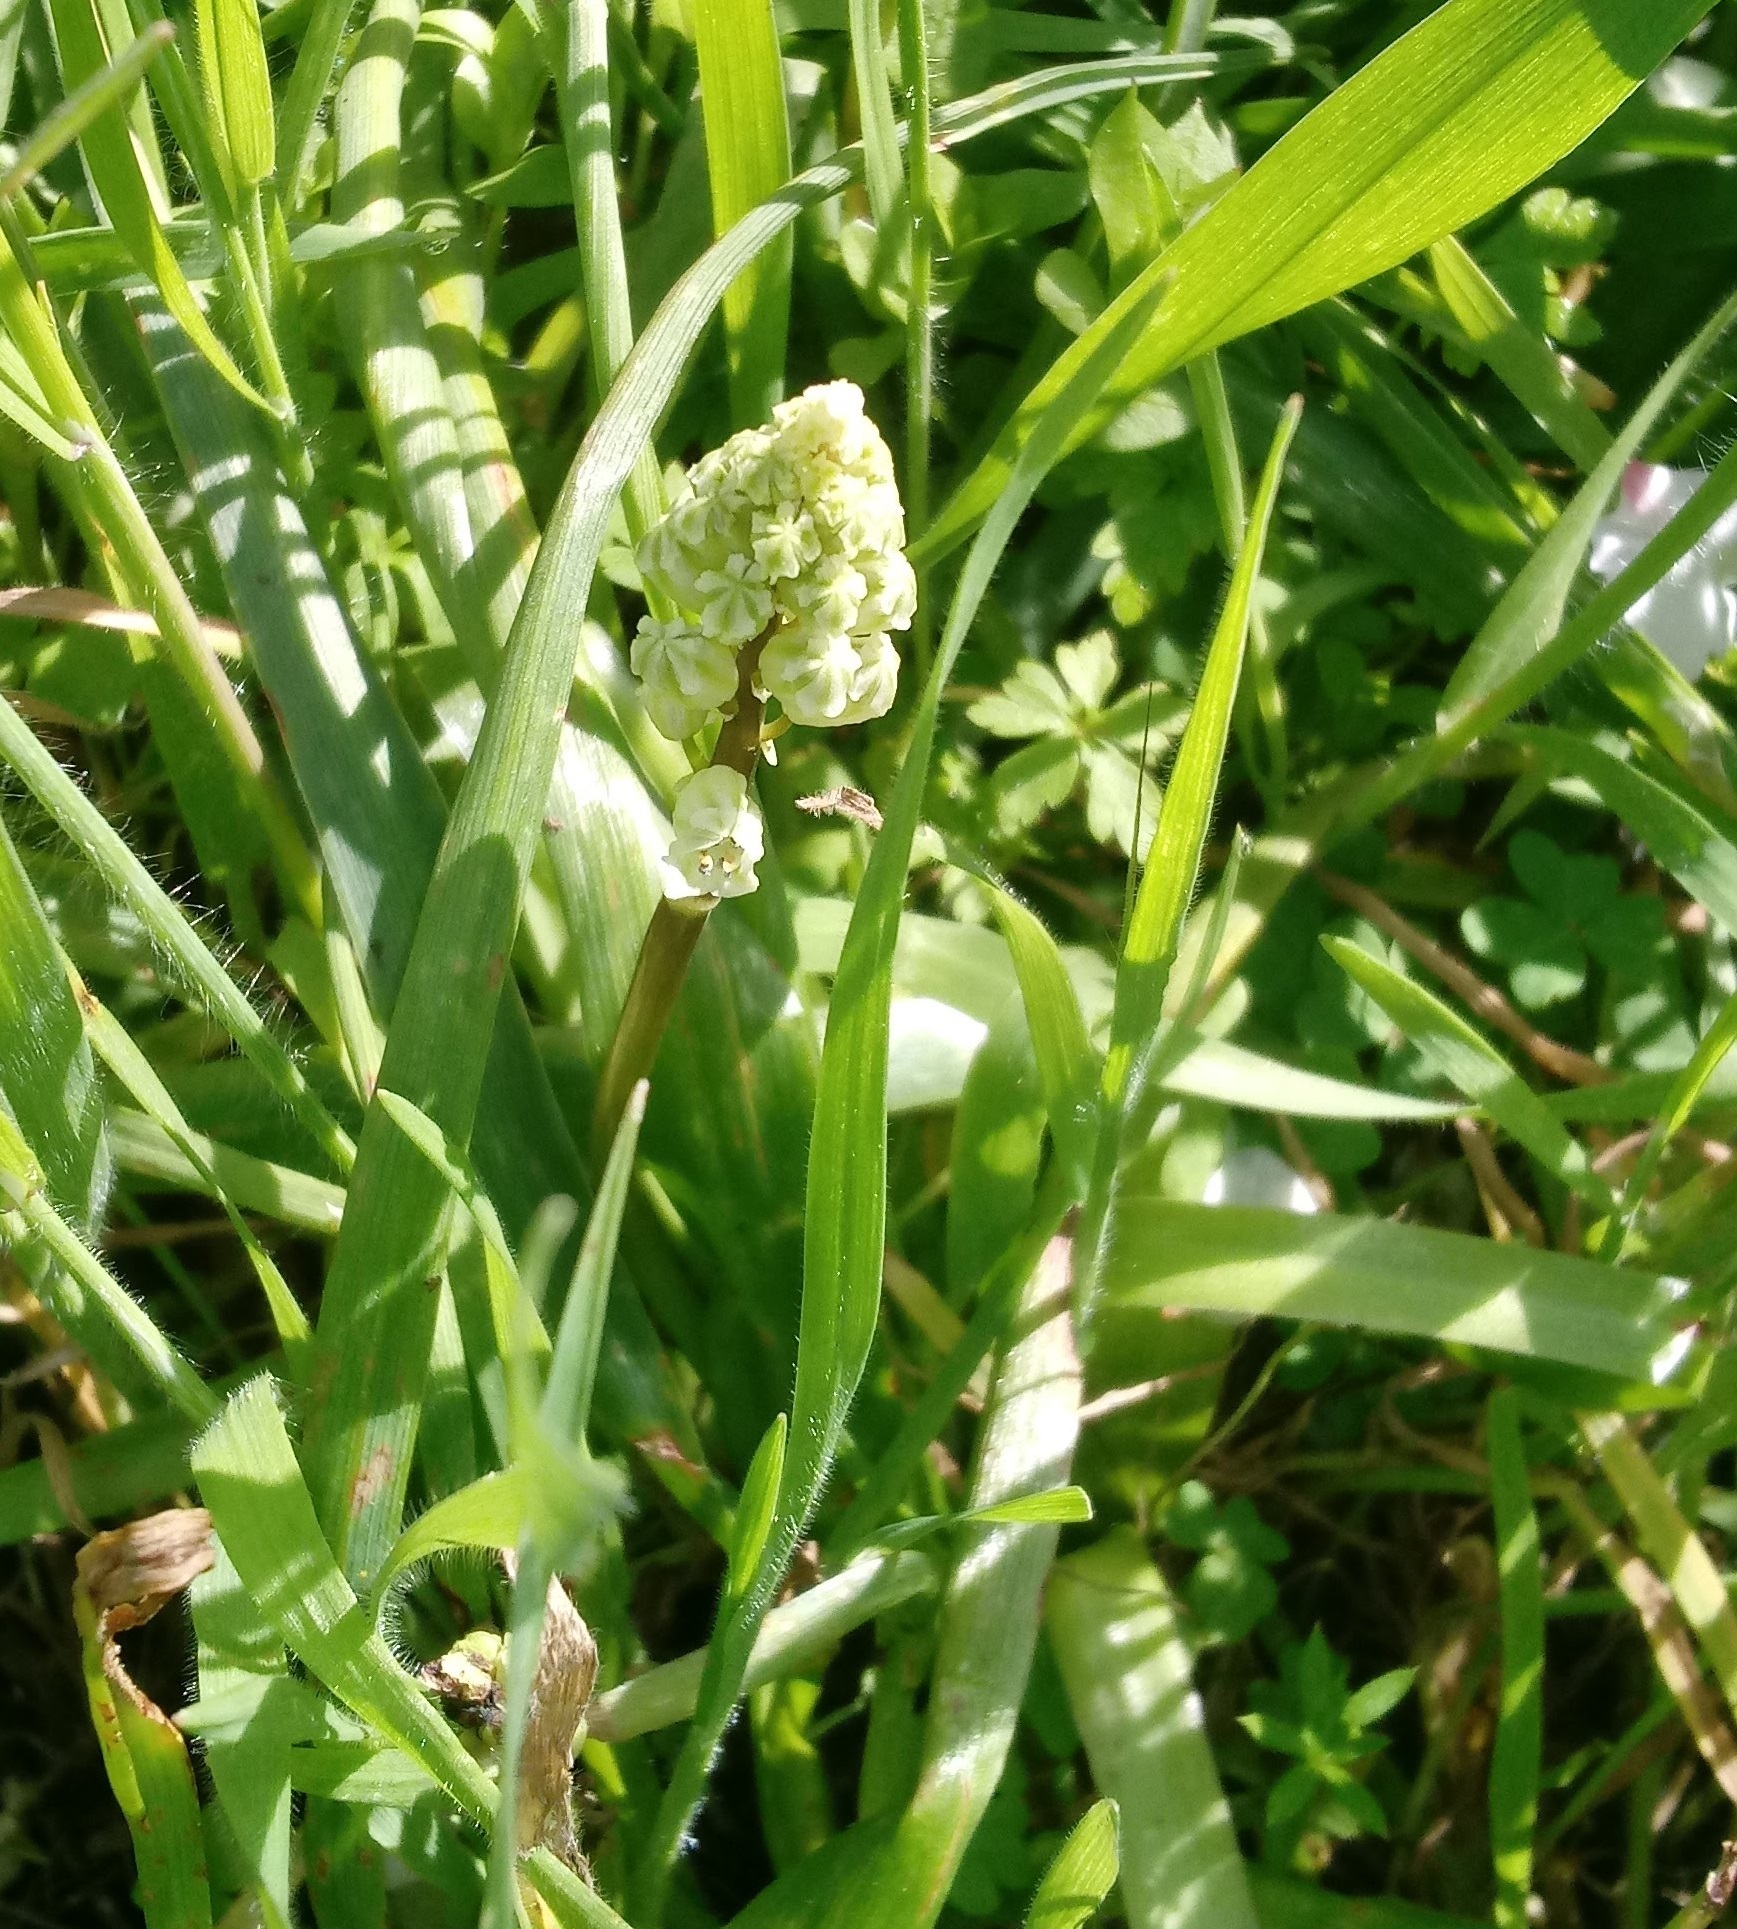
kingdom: Plantae
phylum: Tracheophyta
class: Liliopsida
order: Asparagales
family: Asparagaceae
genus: Bellevalia
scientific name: Bellevalia flexuosa
